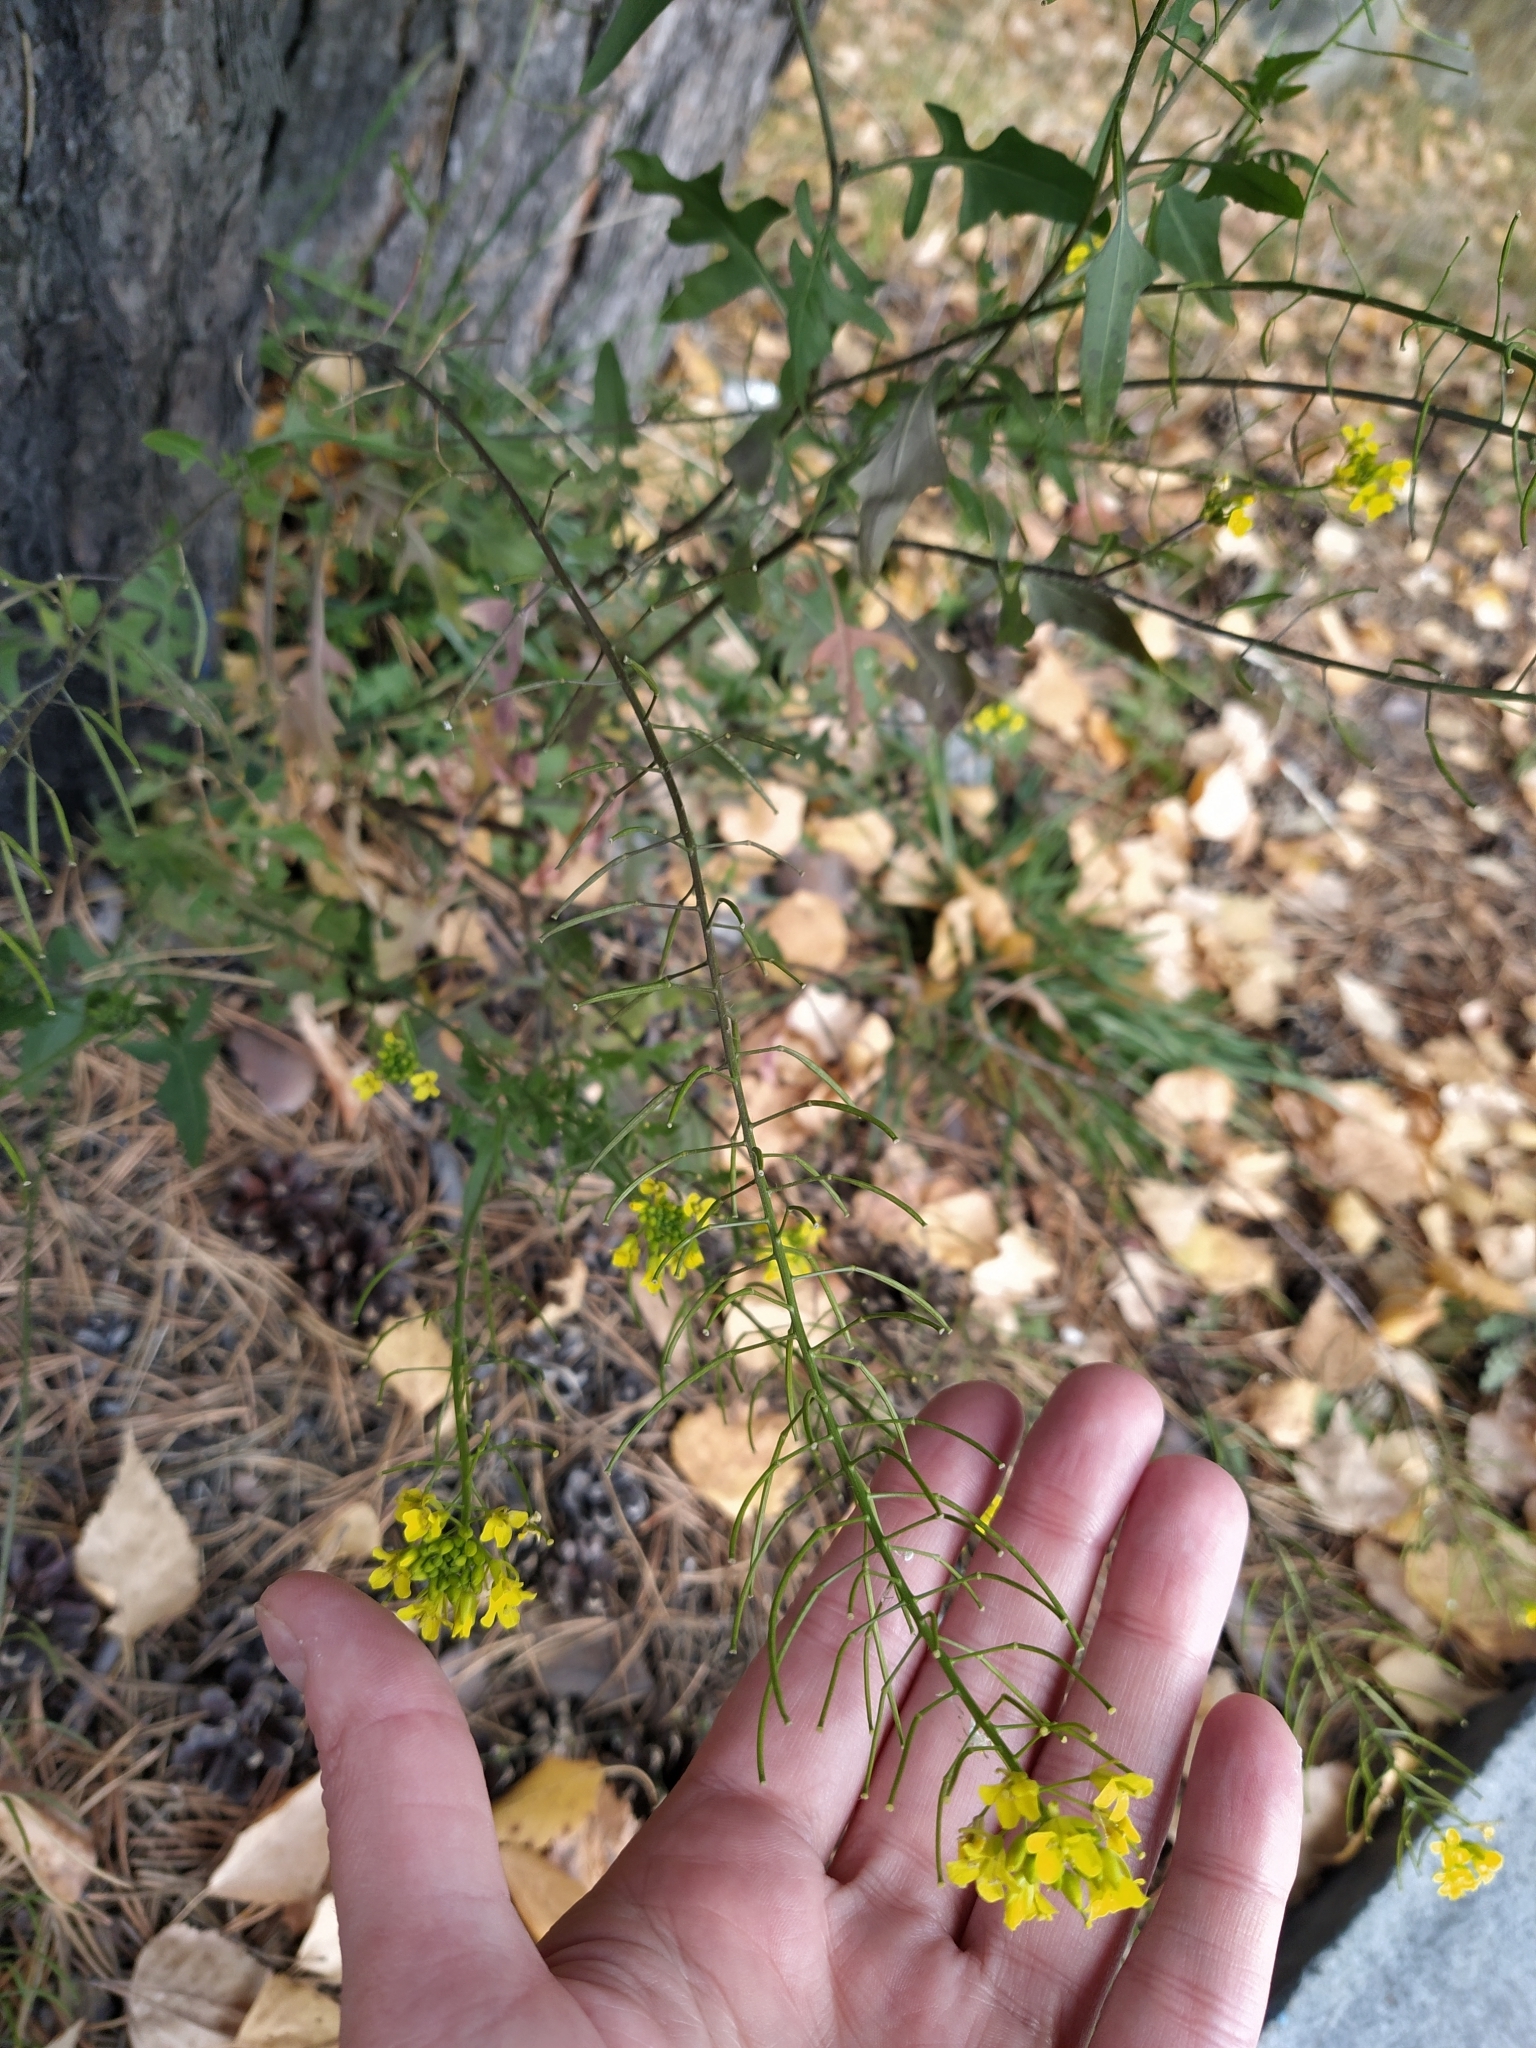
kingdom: Plantae
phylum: Tracheophyta
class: Magnoliopsida
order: Brassicales
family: Brassicaceae
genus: Sisymbrium
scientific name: Sisymbrium loeselii
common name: False london-rocket
